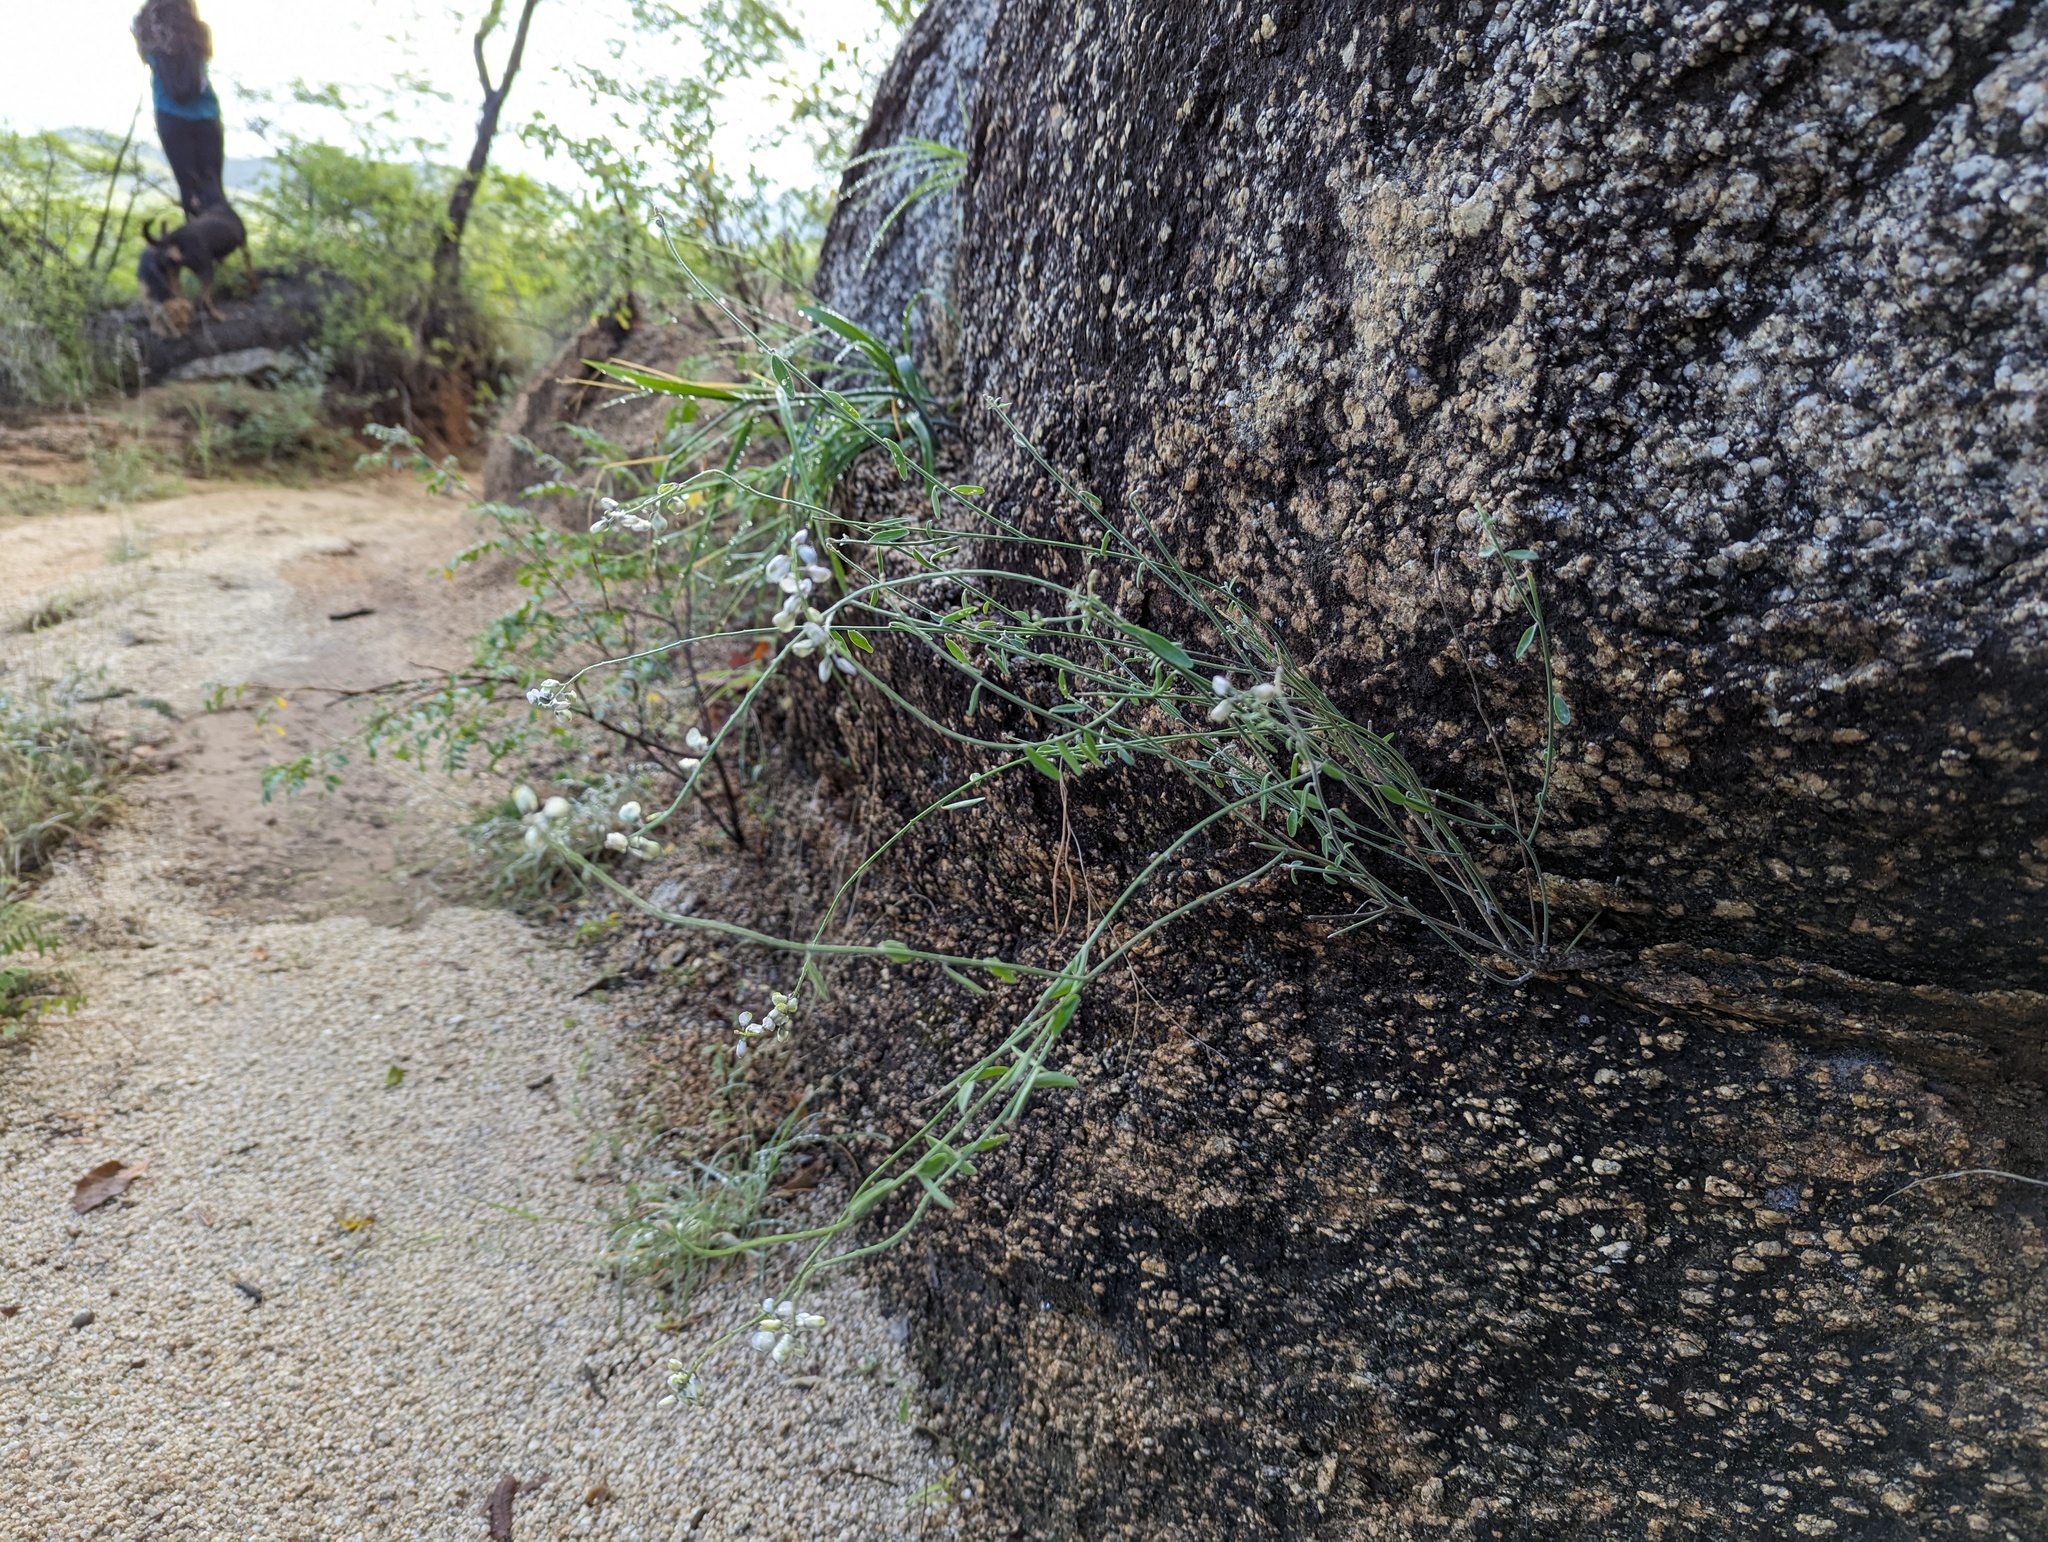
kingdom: Plantae
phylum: Tracheophyta
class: Magnoliopsida
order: Fabales
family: Polygalaceae
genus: Polygala
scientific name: Polygala magdalenae
